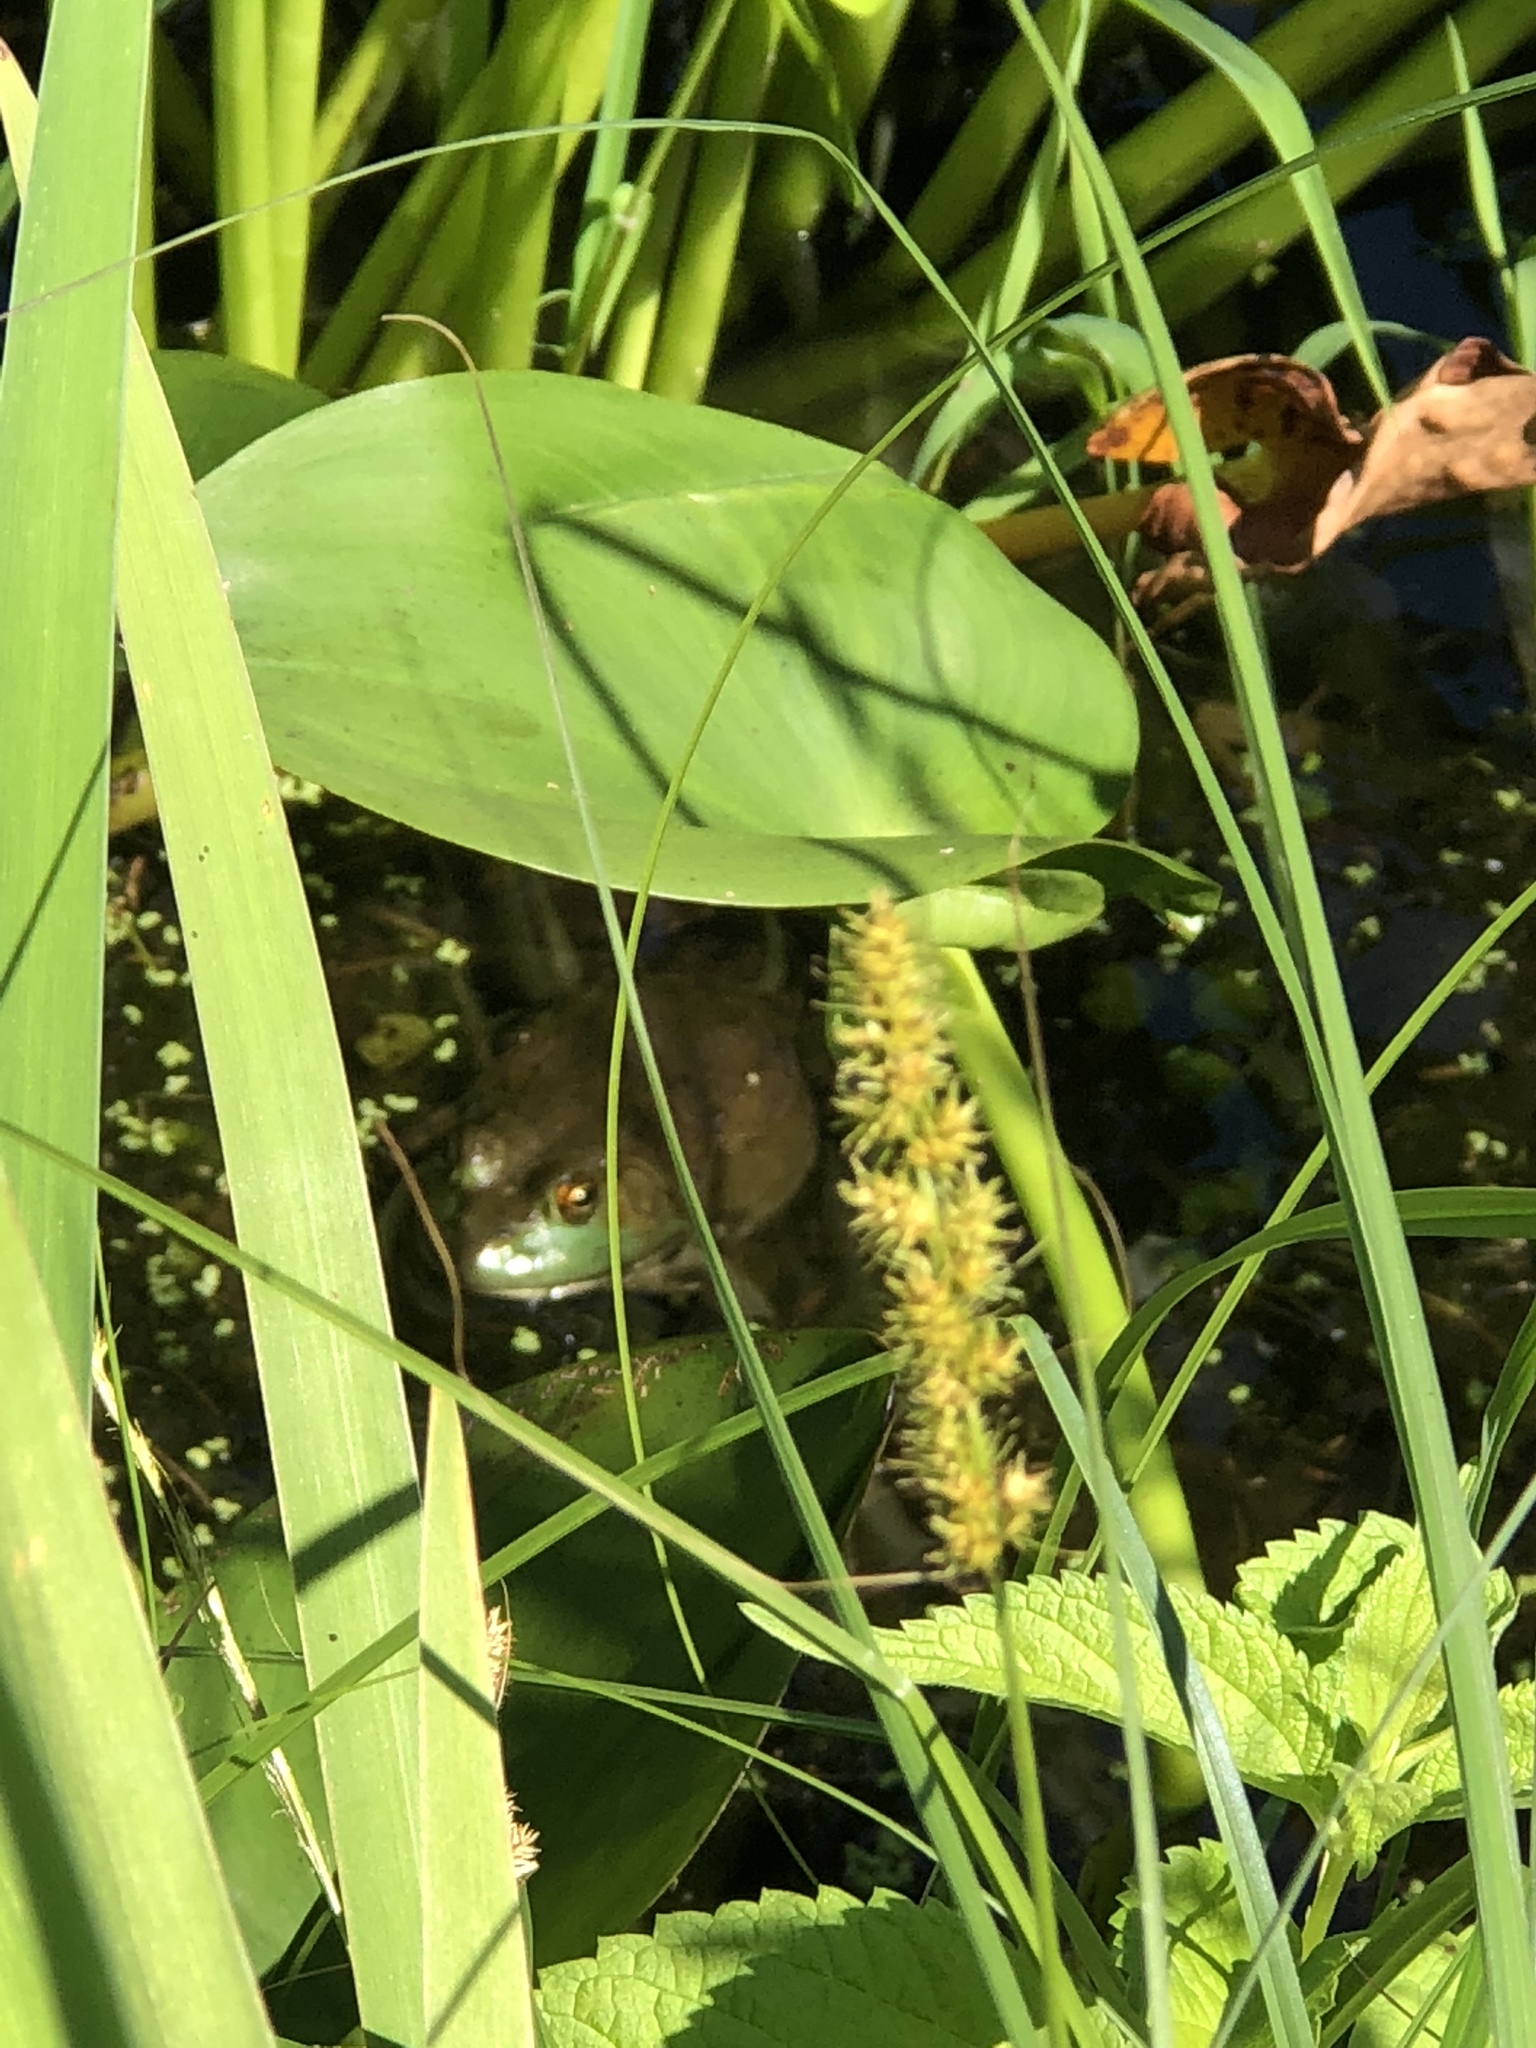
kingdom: Animalia
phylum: Chordata
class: Amphibia
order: Anura
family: Ranidae
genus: Lithobates
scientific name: Lithobates catesbeianus
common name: American bullfrog
